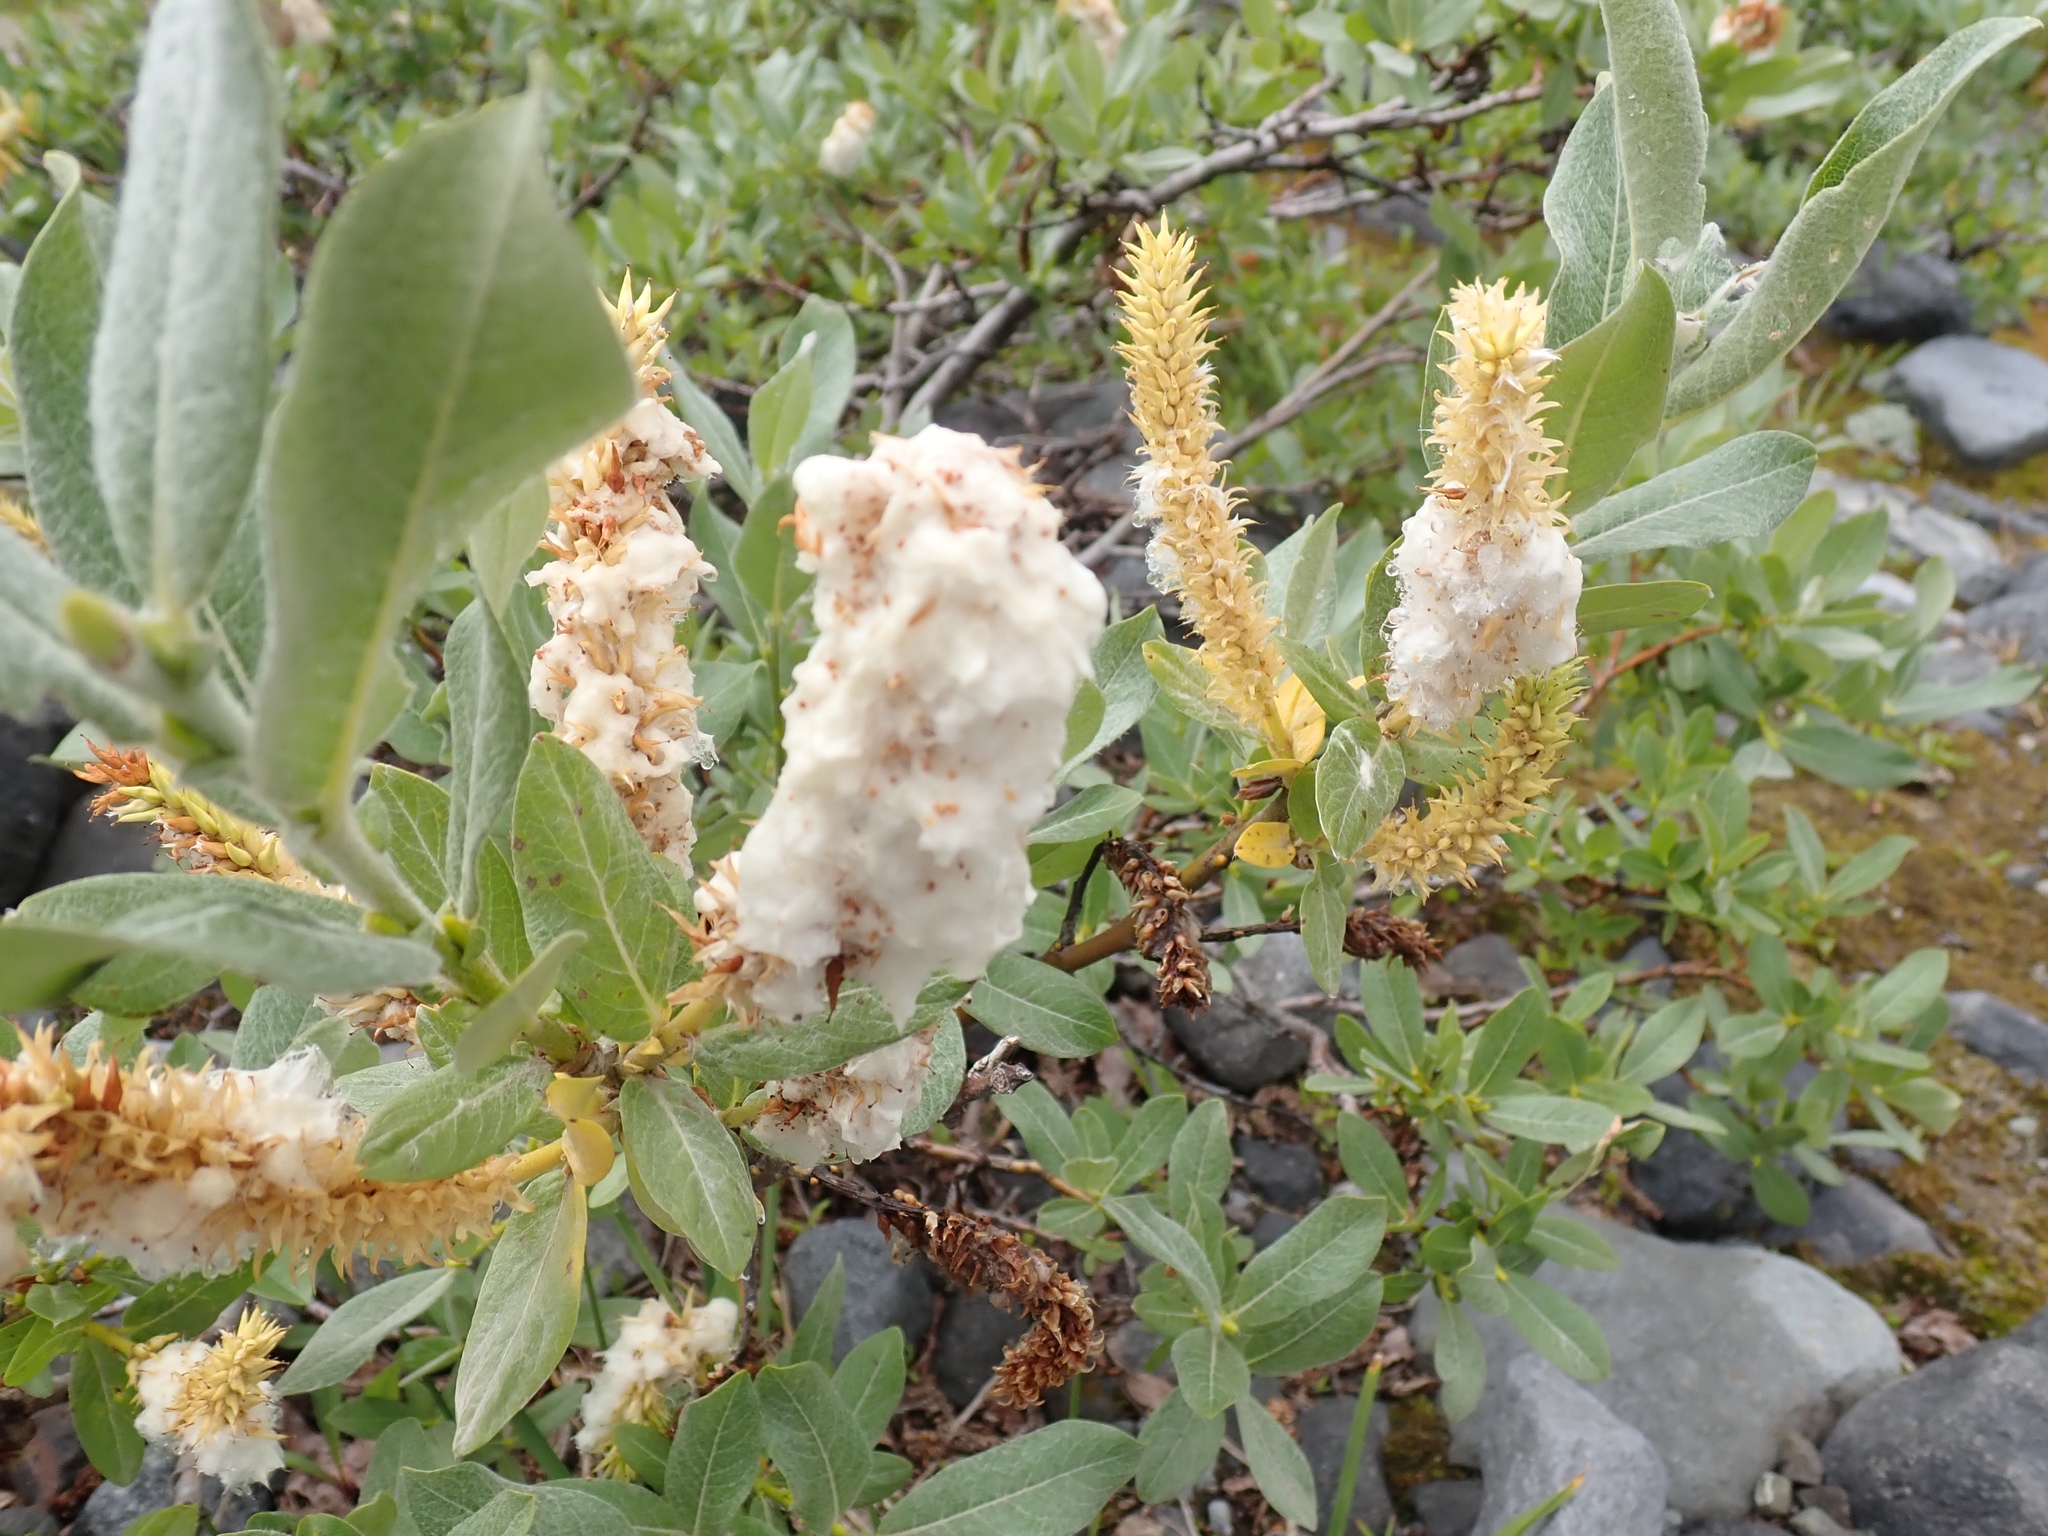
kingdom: Plantae
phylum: Tracheophyta
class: Magnoliopsida
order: Malpighiales
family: Salicaceae
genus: Salix
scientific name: Salix commutata
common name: Under-green willow
